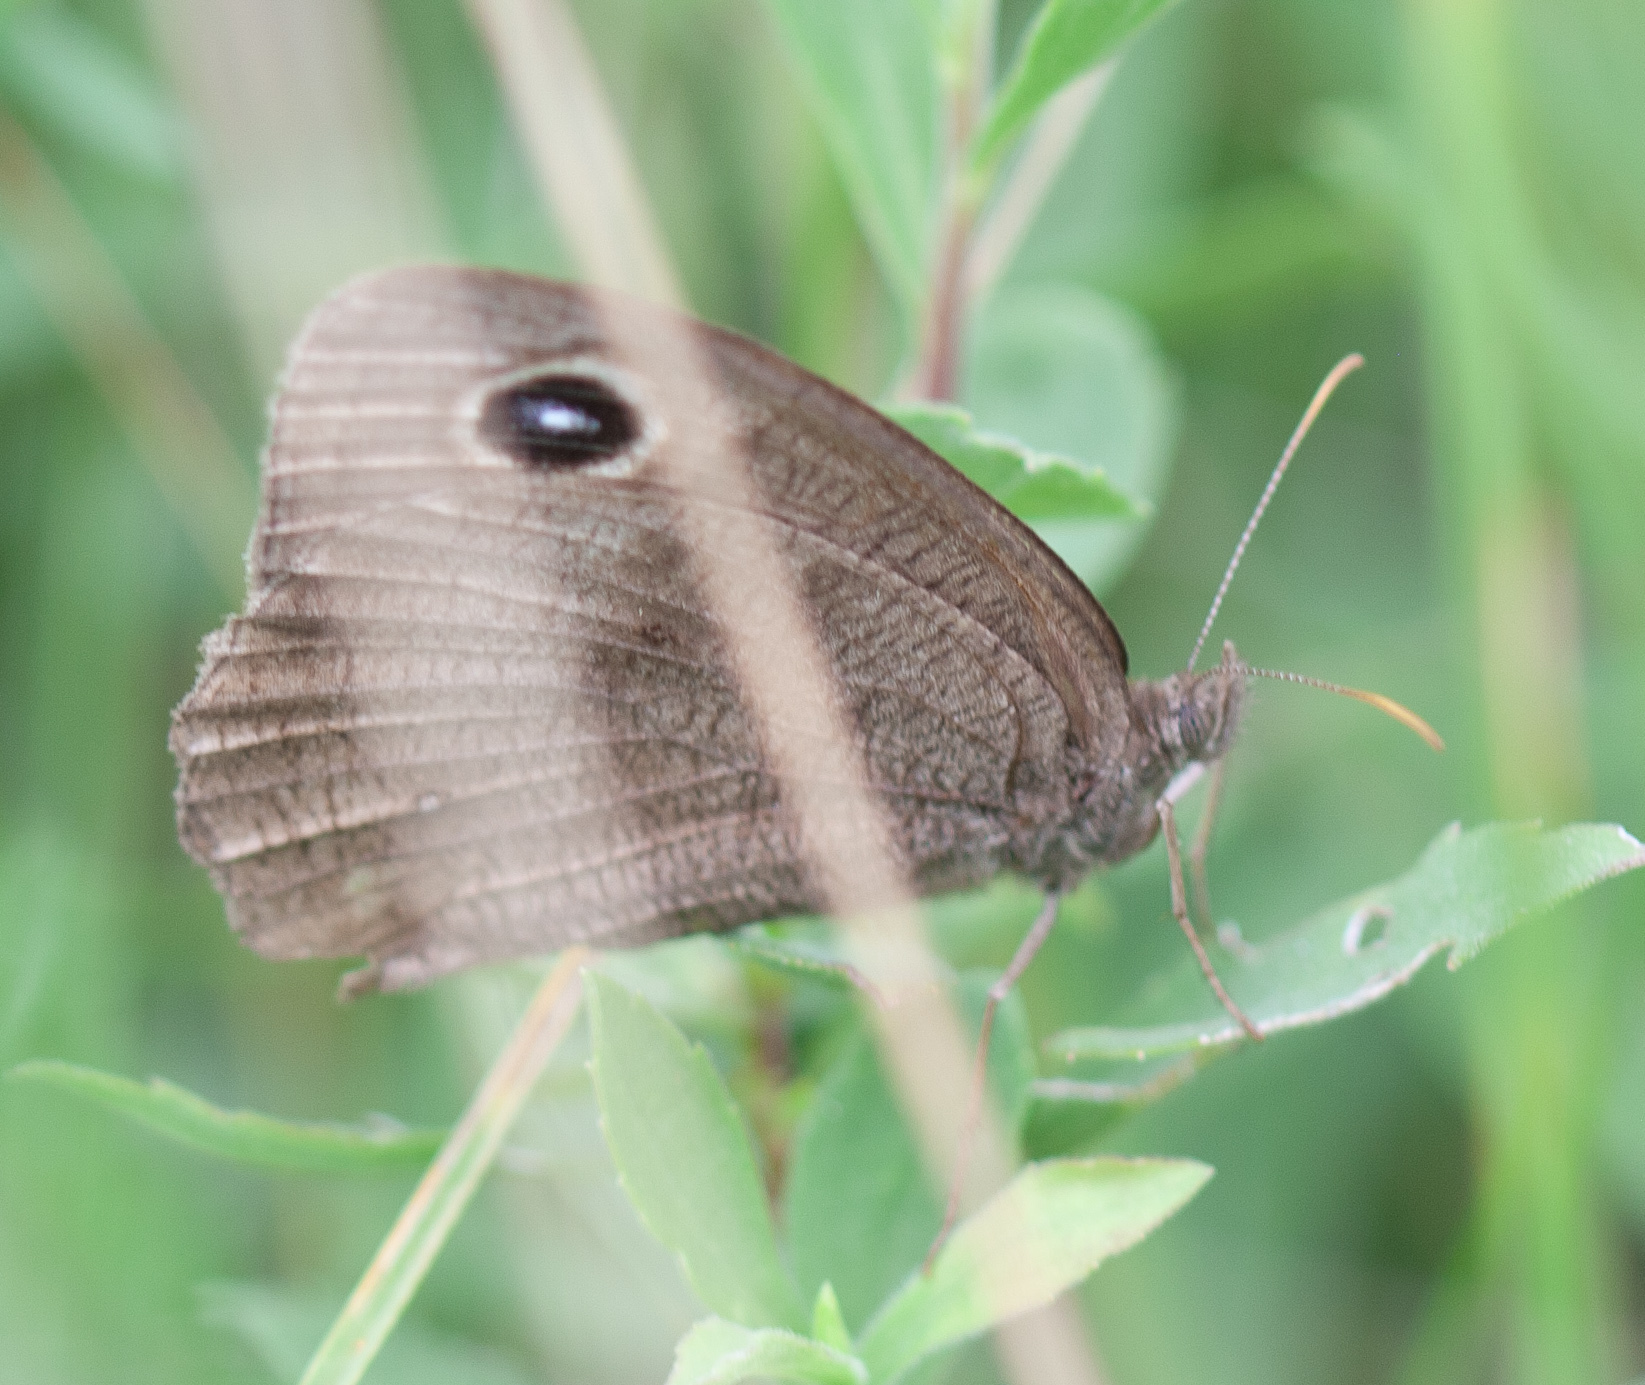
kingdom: Animalia
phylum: Arthropoda
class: Insecta
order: Lepidoptera
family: Nymphalidae
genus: Cercyonis
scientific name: Cercyonis pegala
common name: Common wood-nymph
